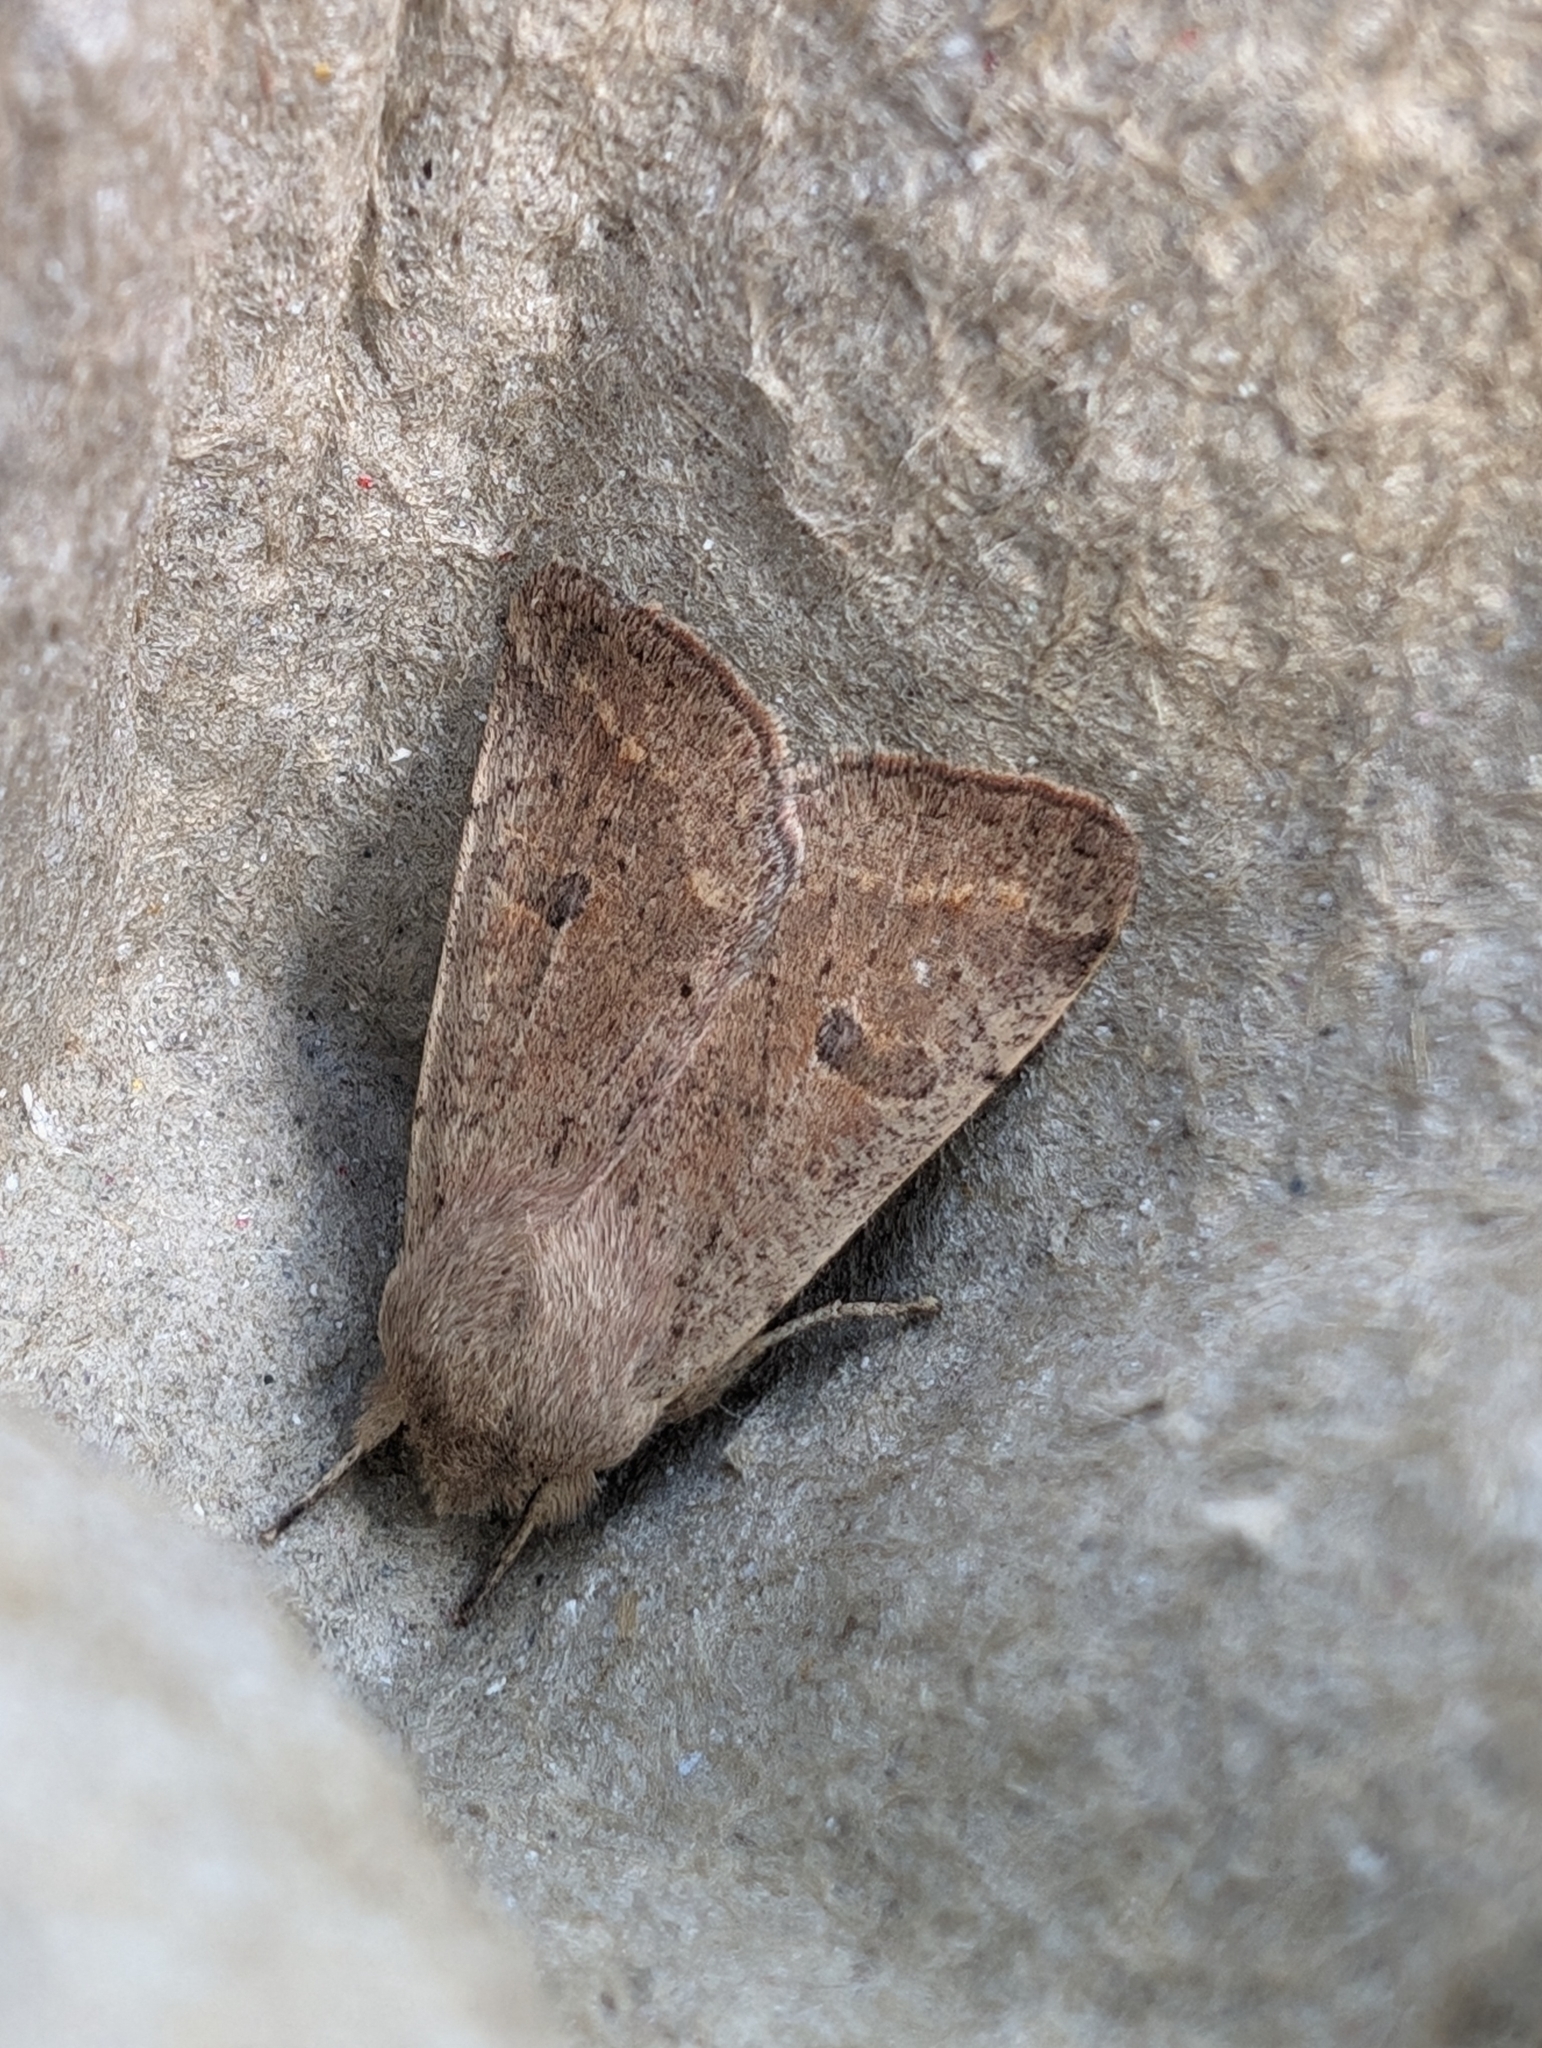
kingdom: Animalia
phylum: Arthropoda
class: Insecta
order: Lepidoptera
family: Noctuidae
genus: Orthosia
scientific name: Orthosia cruda
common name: Small quaker
